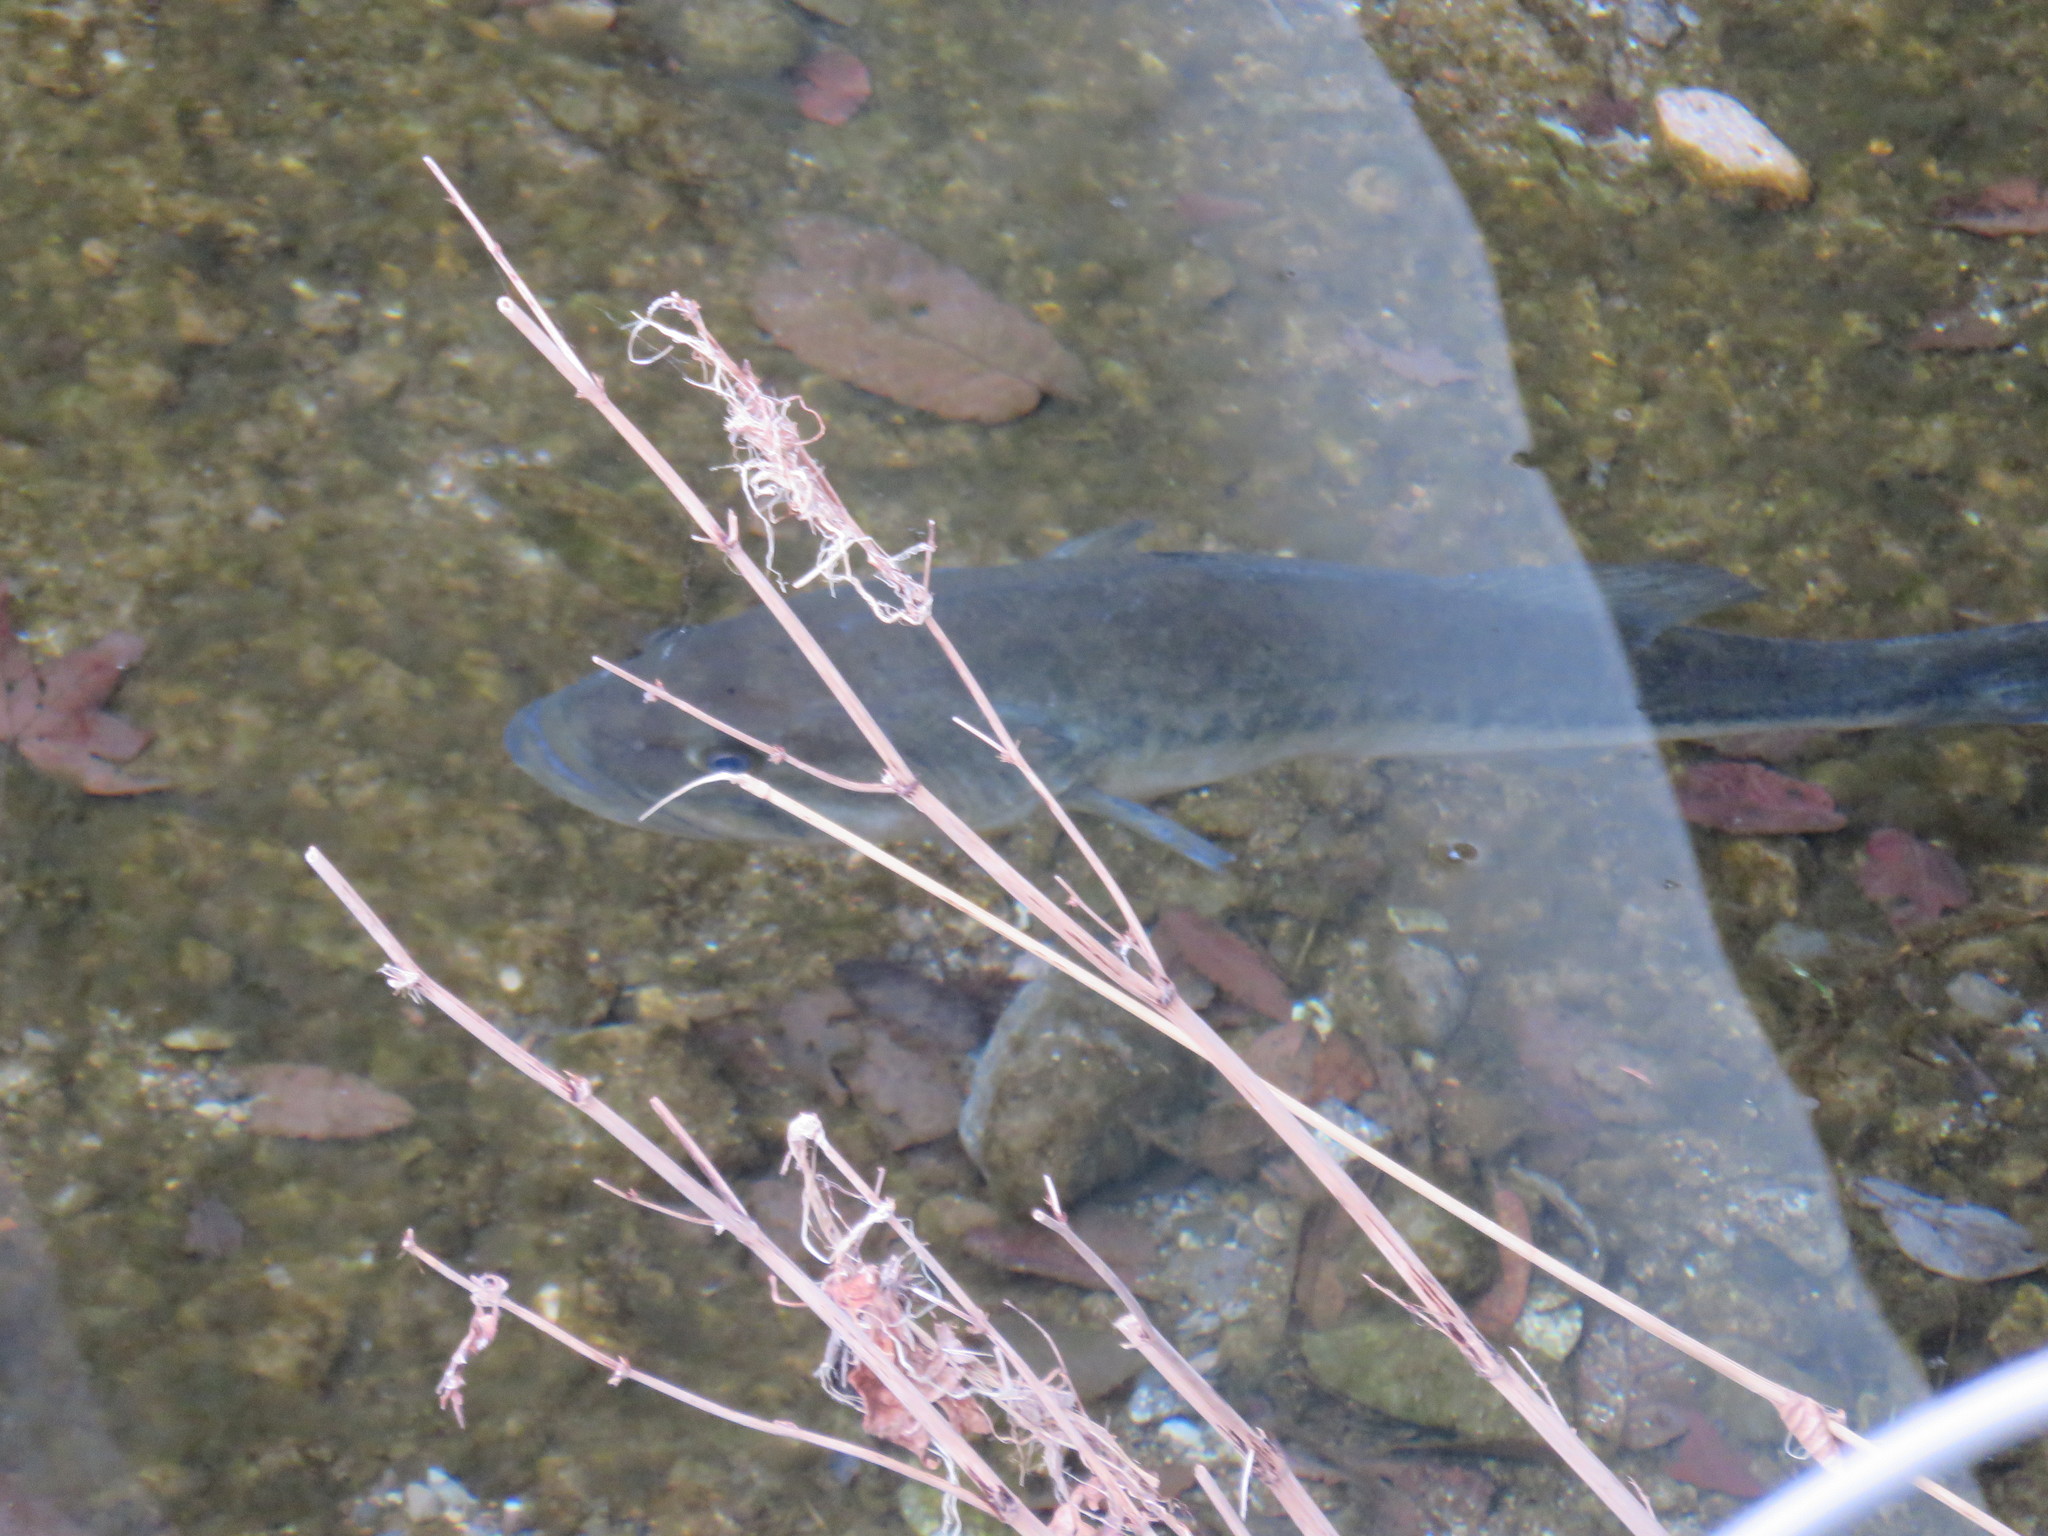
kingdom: Animalia
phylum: Chordata
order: Perciformes
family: Centrarchidae
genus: Micropterus
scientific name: Micropterus
